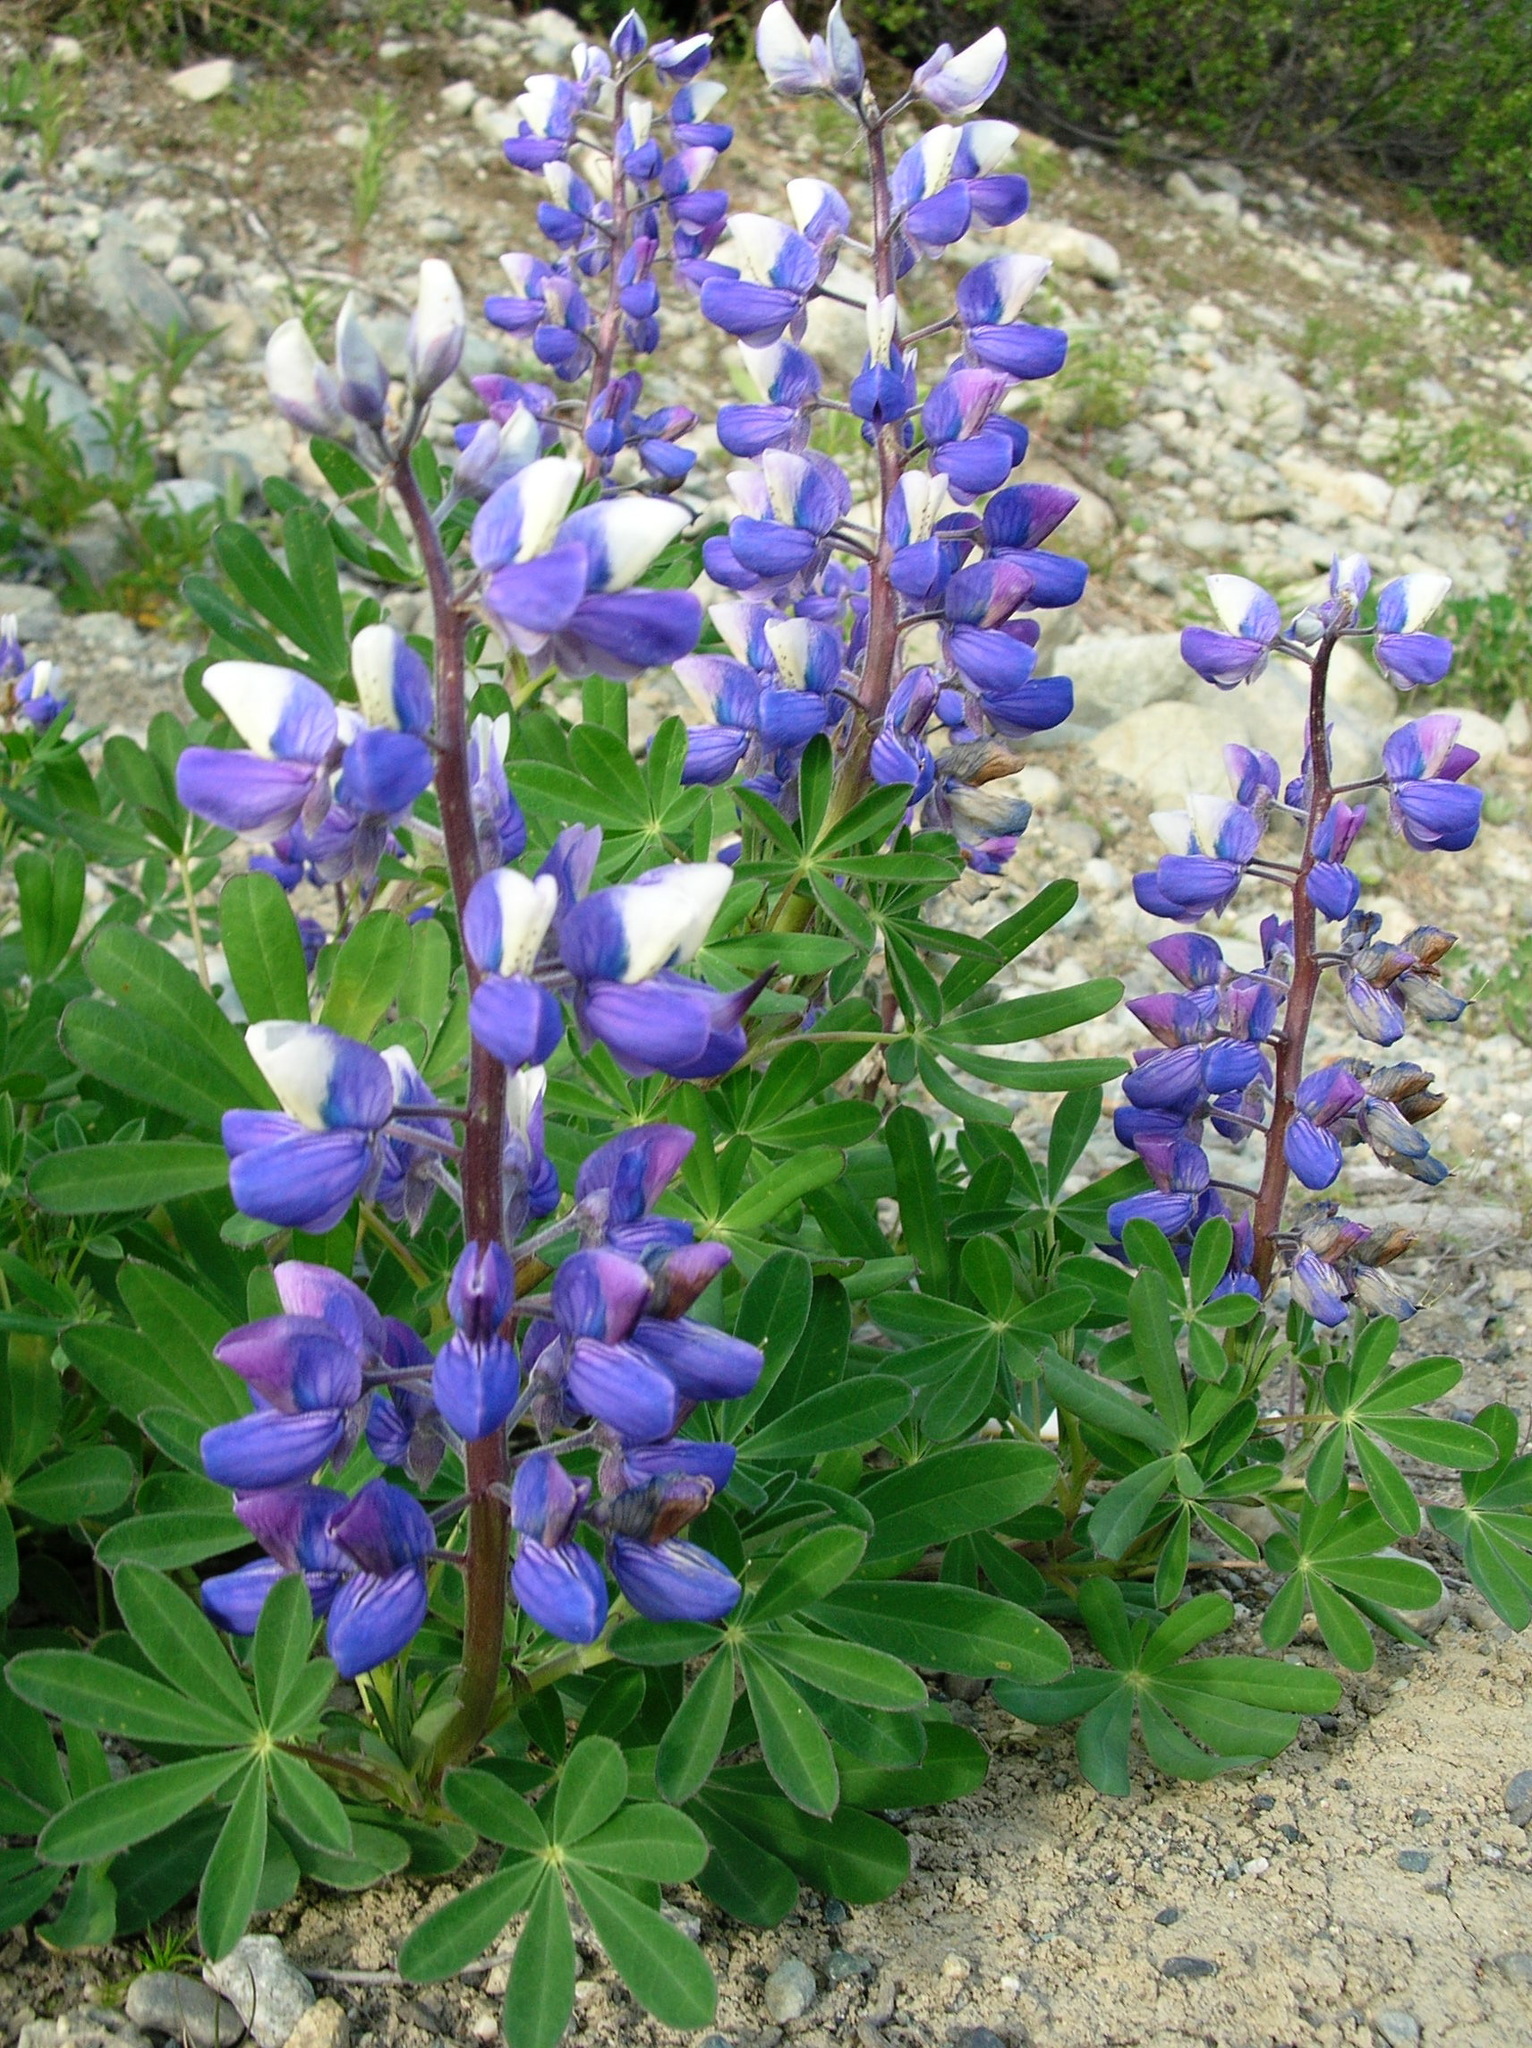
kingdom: Plantae
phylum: Tracheophyta
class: Magnoliopsida
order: Fabales
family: Fabaceae
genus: Lupinus
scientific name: Lupinus nootkatensis
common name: Nootka lupine
